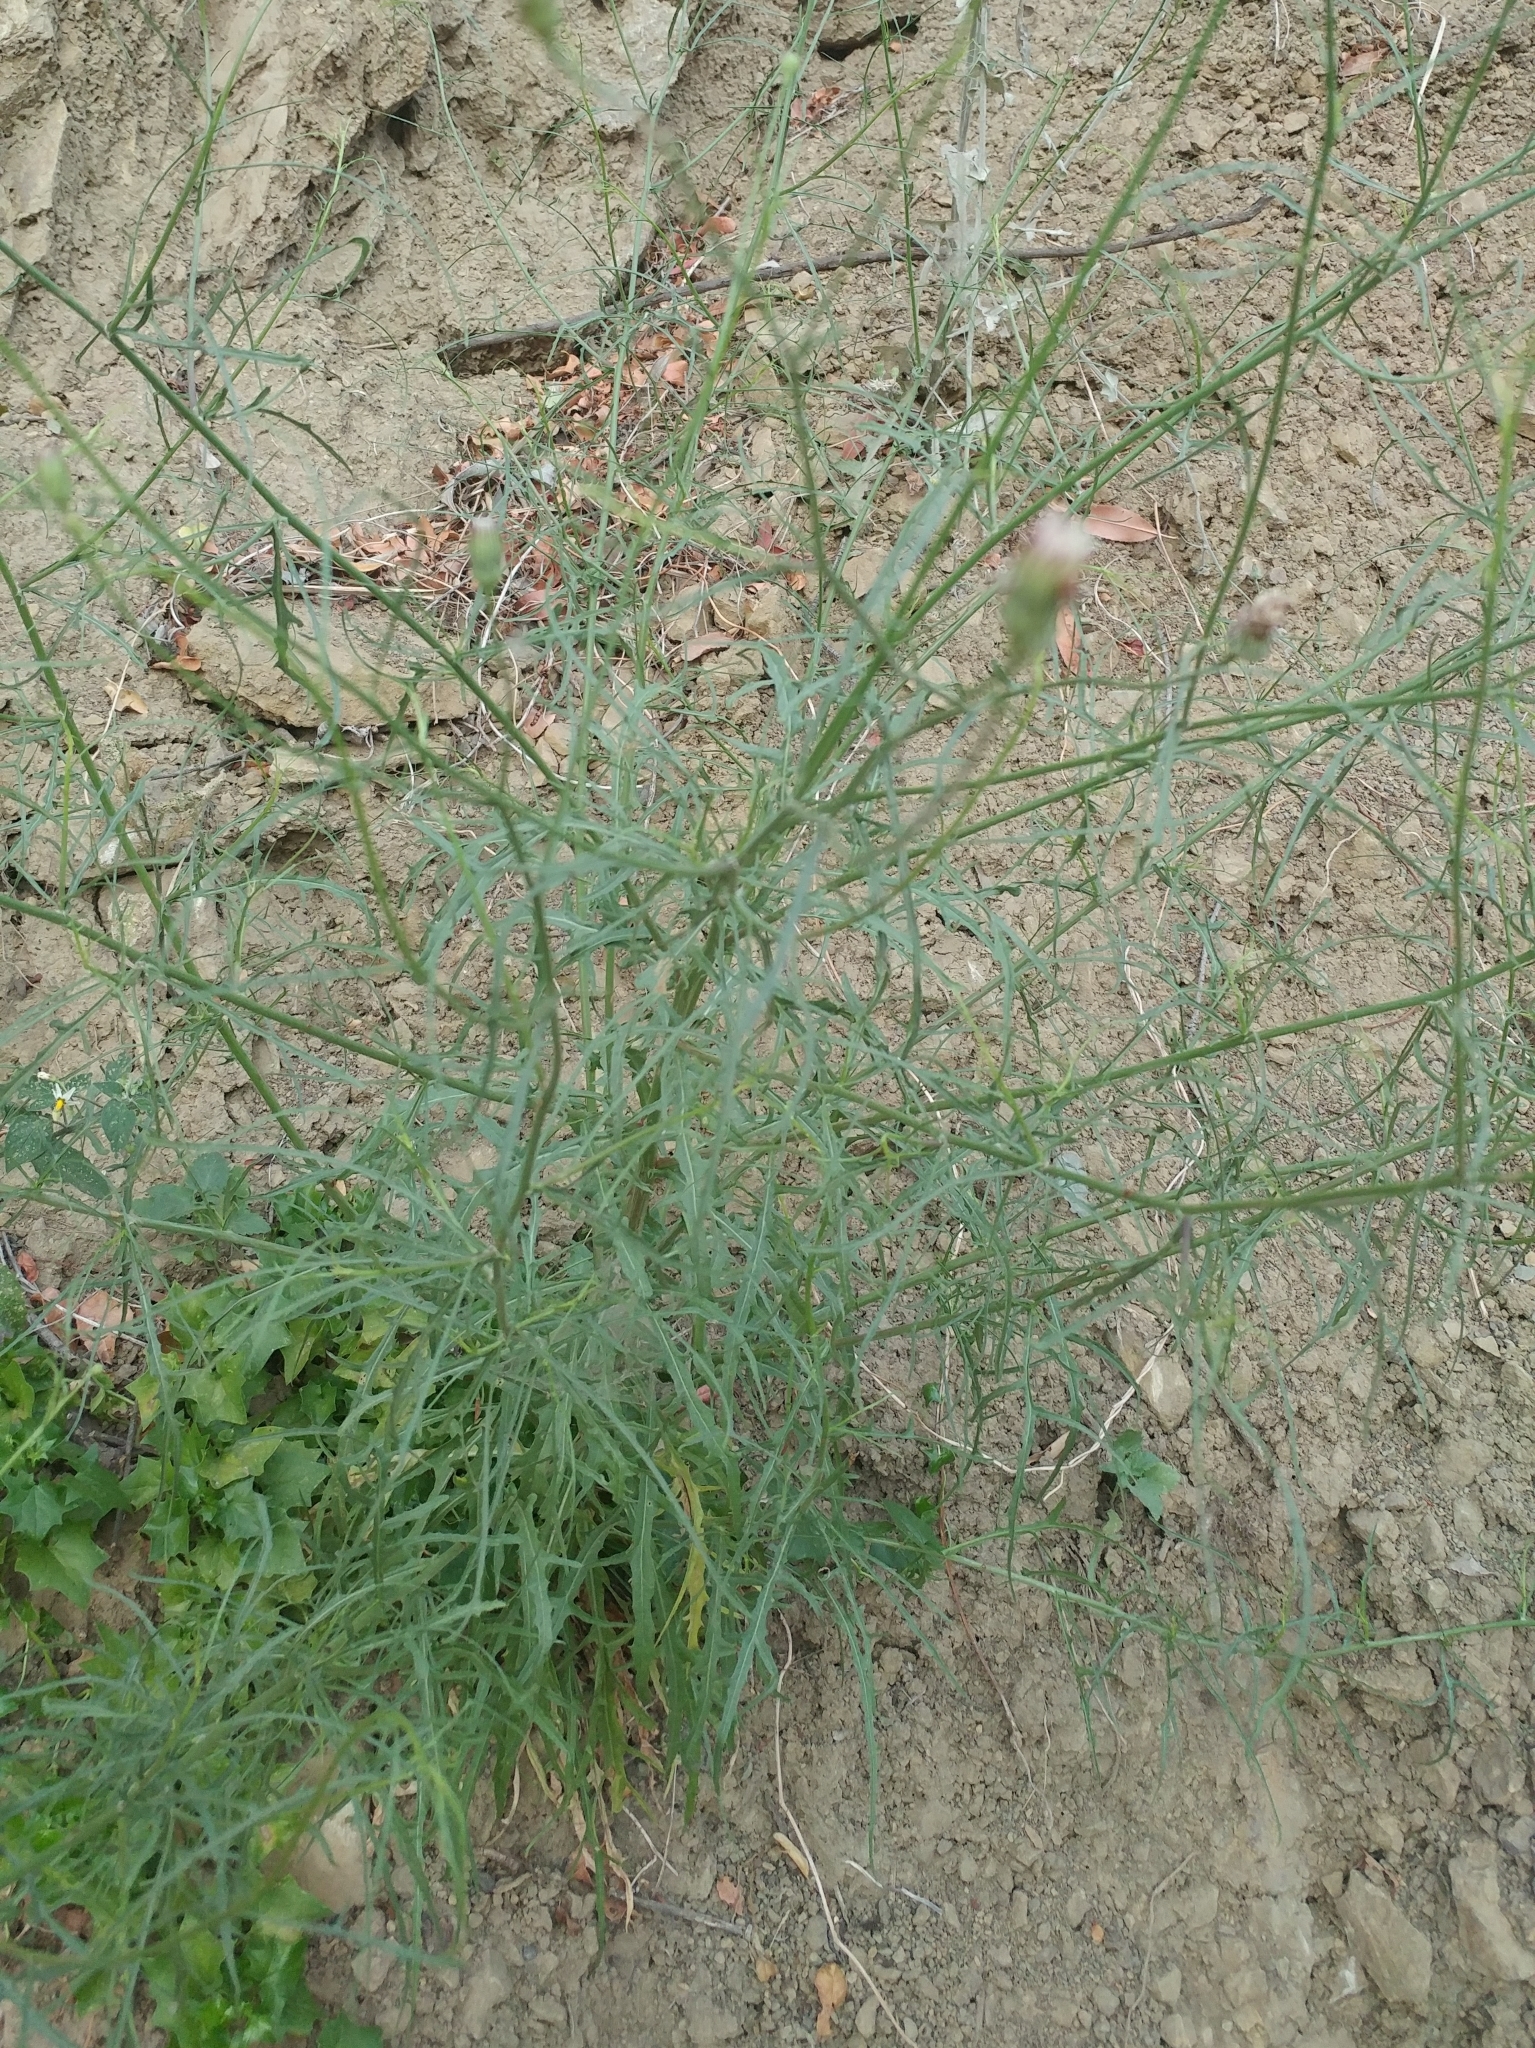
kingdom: Plantae
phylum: Tracheophyta
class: Magnoliopsida
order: Asterales
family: Asteraceae
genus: Malacothrix
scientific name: Malacothrix saxatilis
